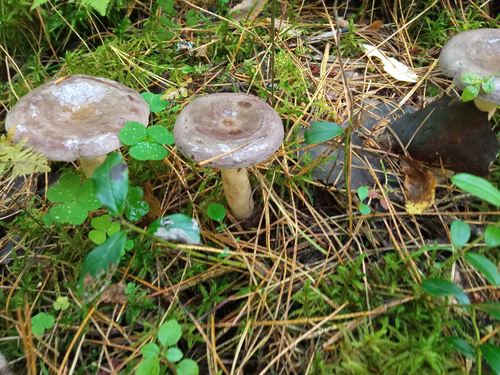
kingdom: Fungi
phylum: Basidiomycota
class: Agaricomycetes
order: Russulales
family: Russulaceae
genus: Lactarius
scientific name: Lactarius trivialis
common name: Tacked milkcap
